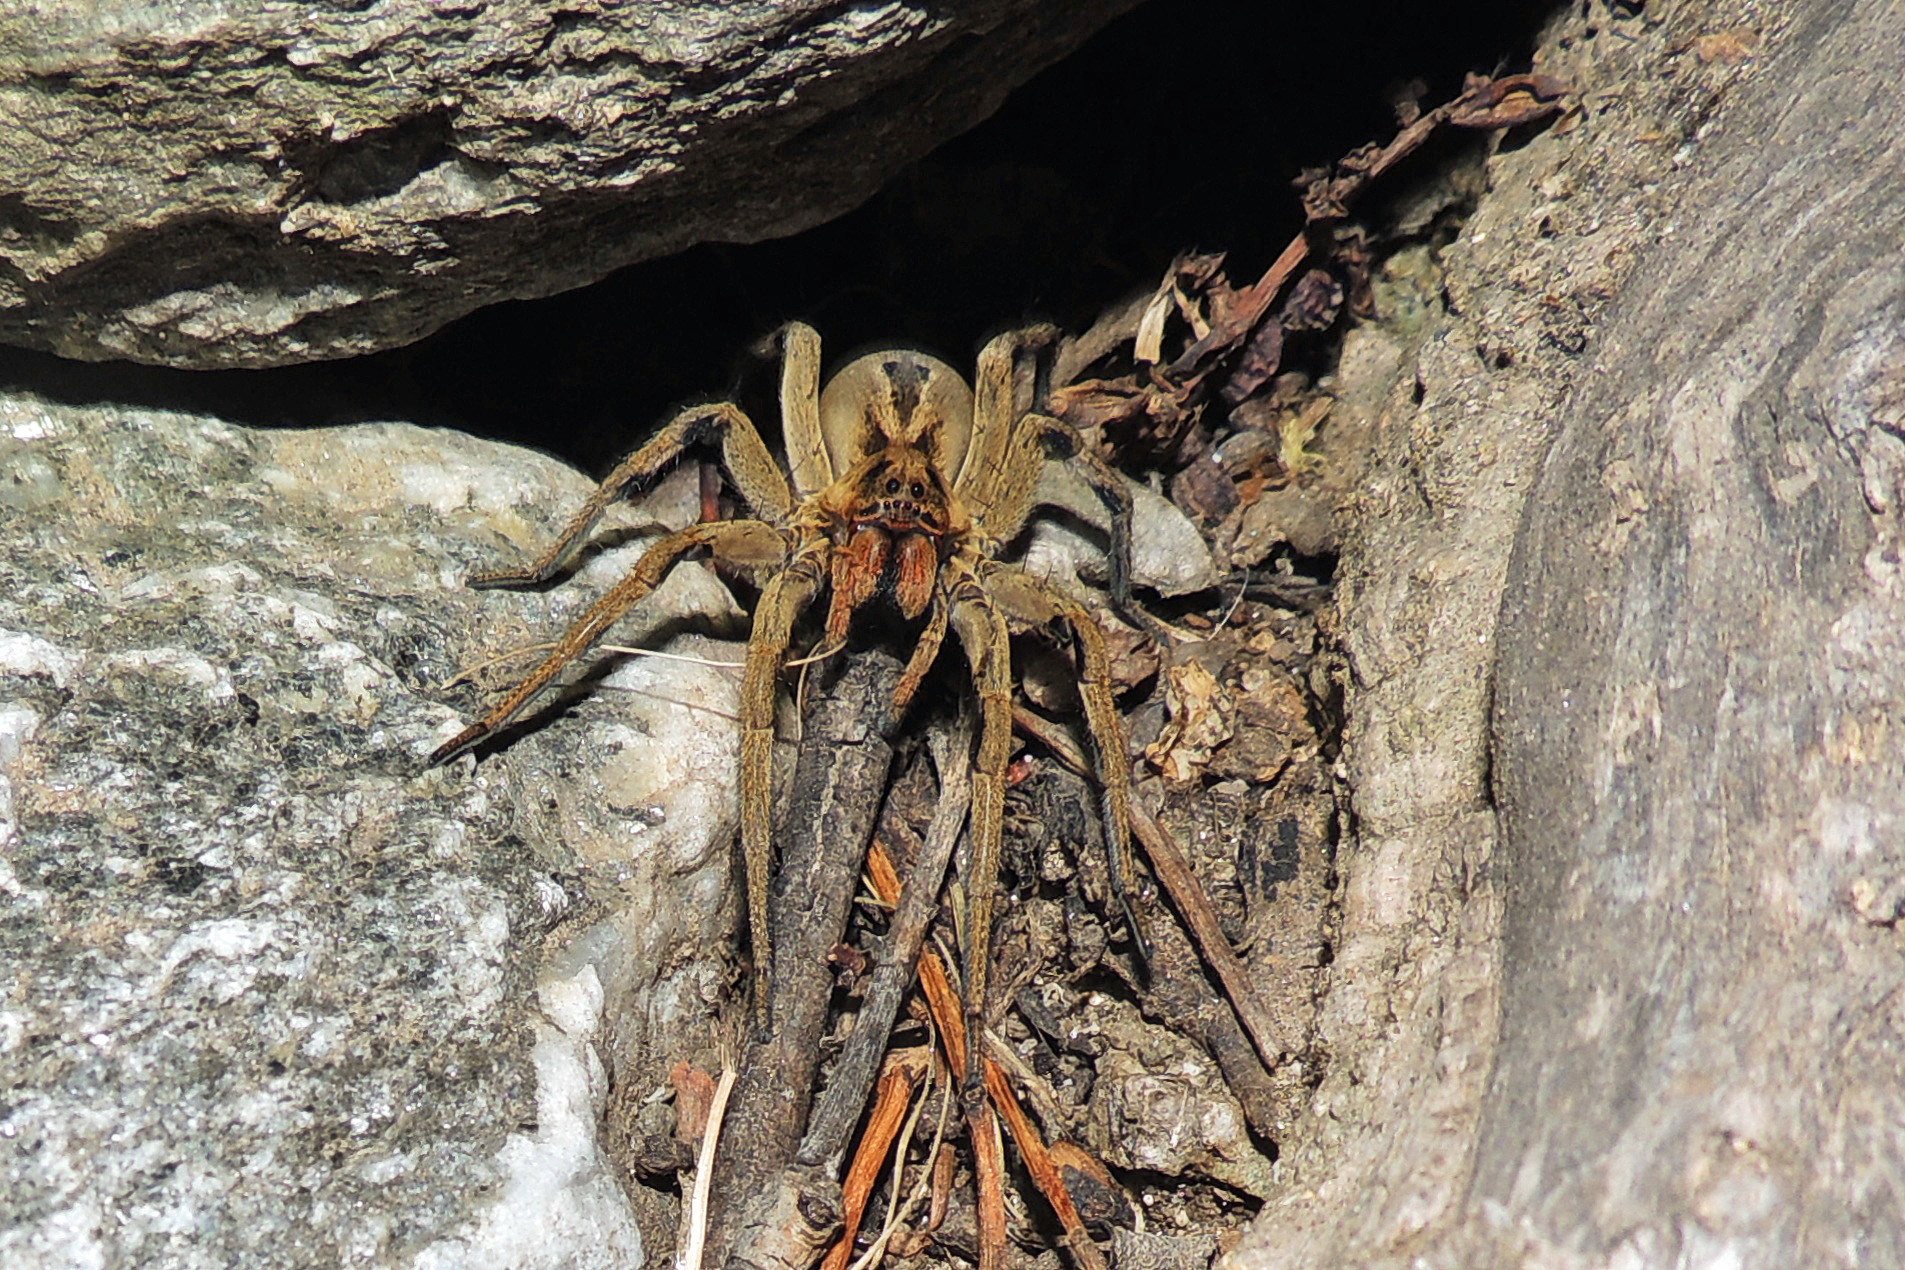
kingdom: Animalia
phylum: Arthropoda
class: Arachnida
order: Araneae
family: Lycosidae
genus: Lycosa
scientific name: Lycosa erythrognatha
